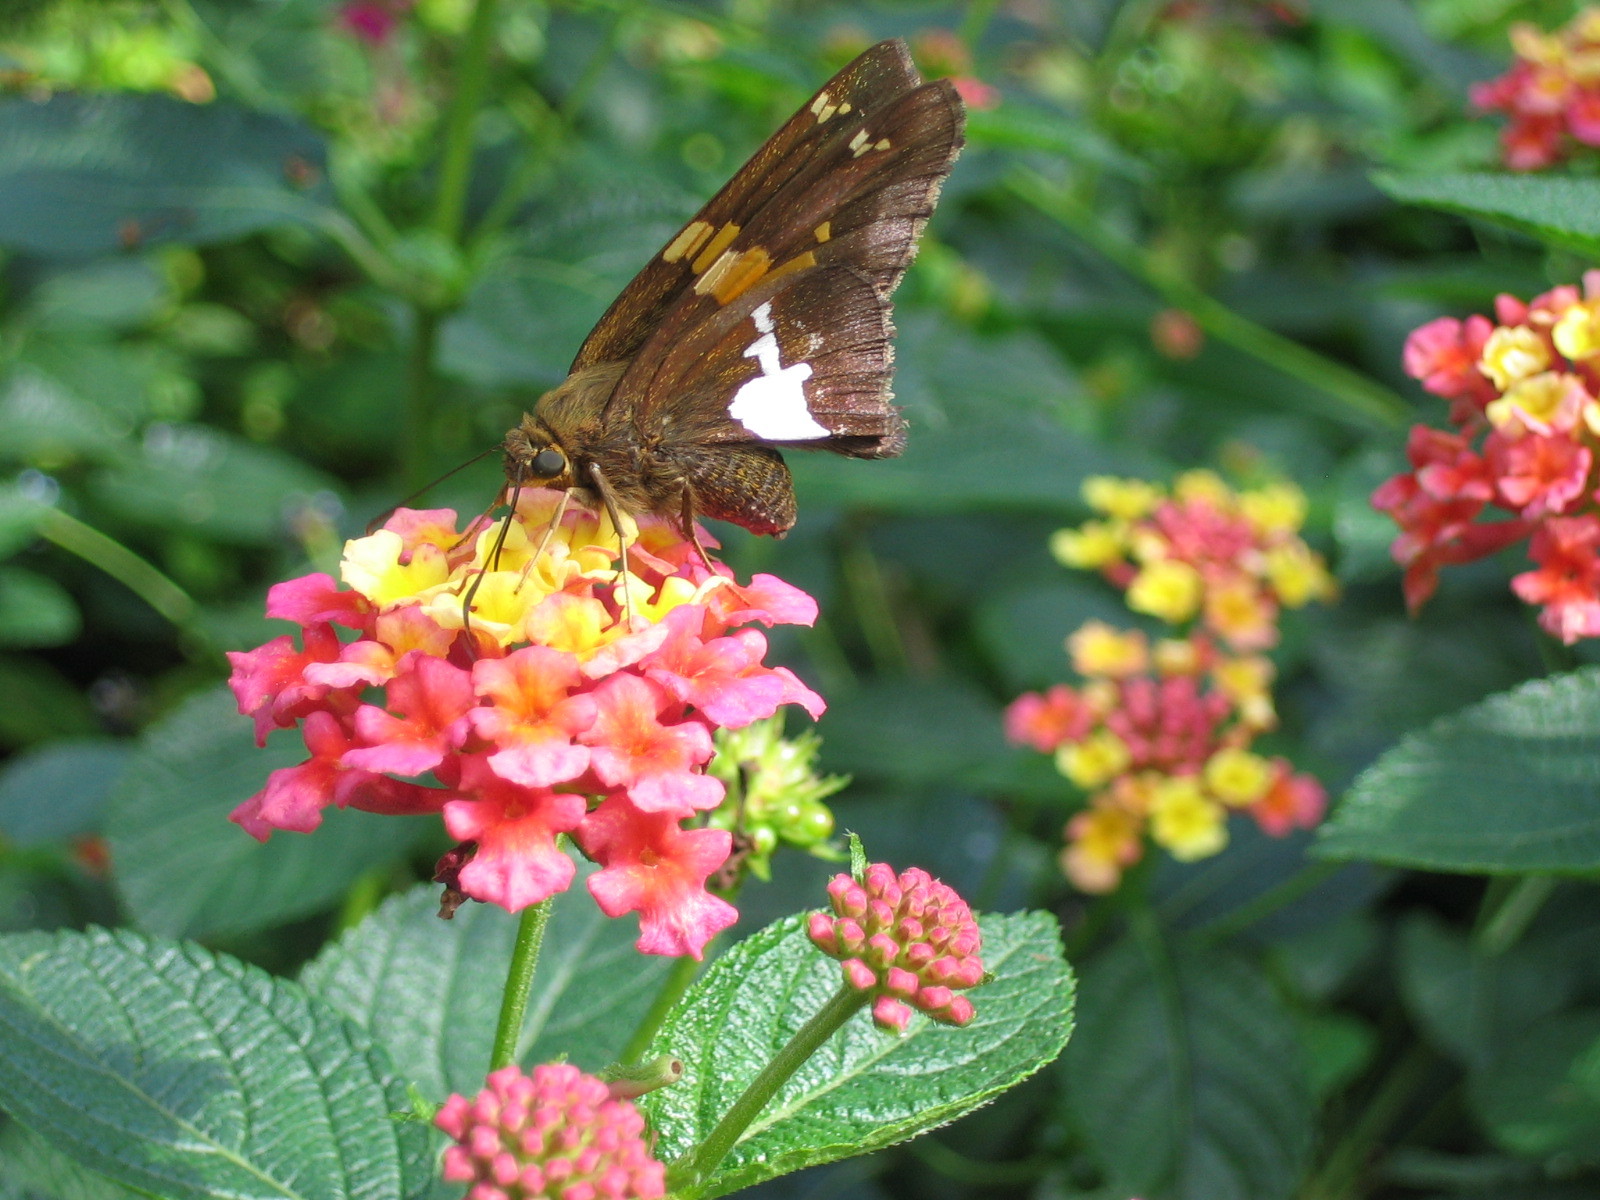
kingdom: Animalia
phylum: Arthropoda
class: Insecta
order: Lepidoptera
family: Hesperiidae
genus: Epargyreus
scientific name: Epargyreus clarus
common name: Silver-spotted skipper
